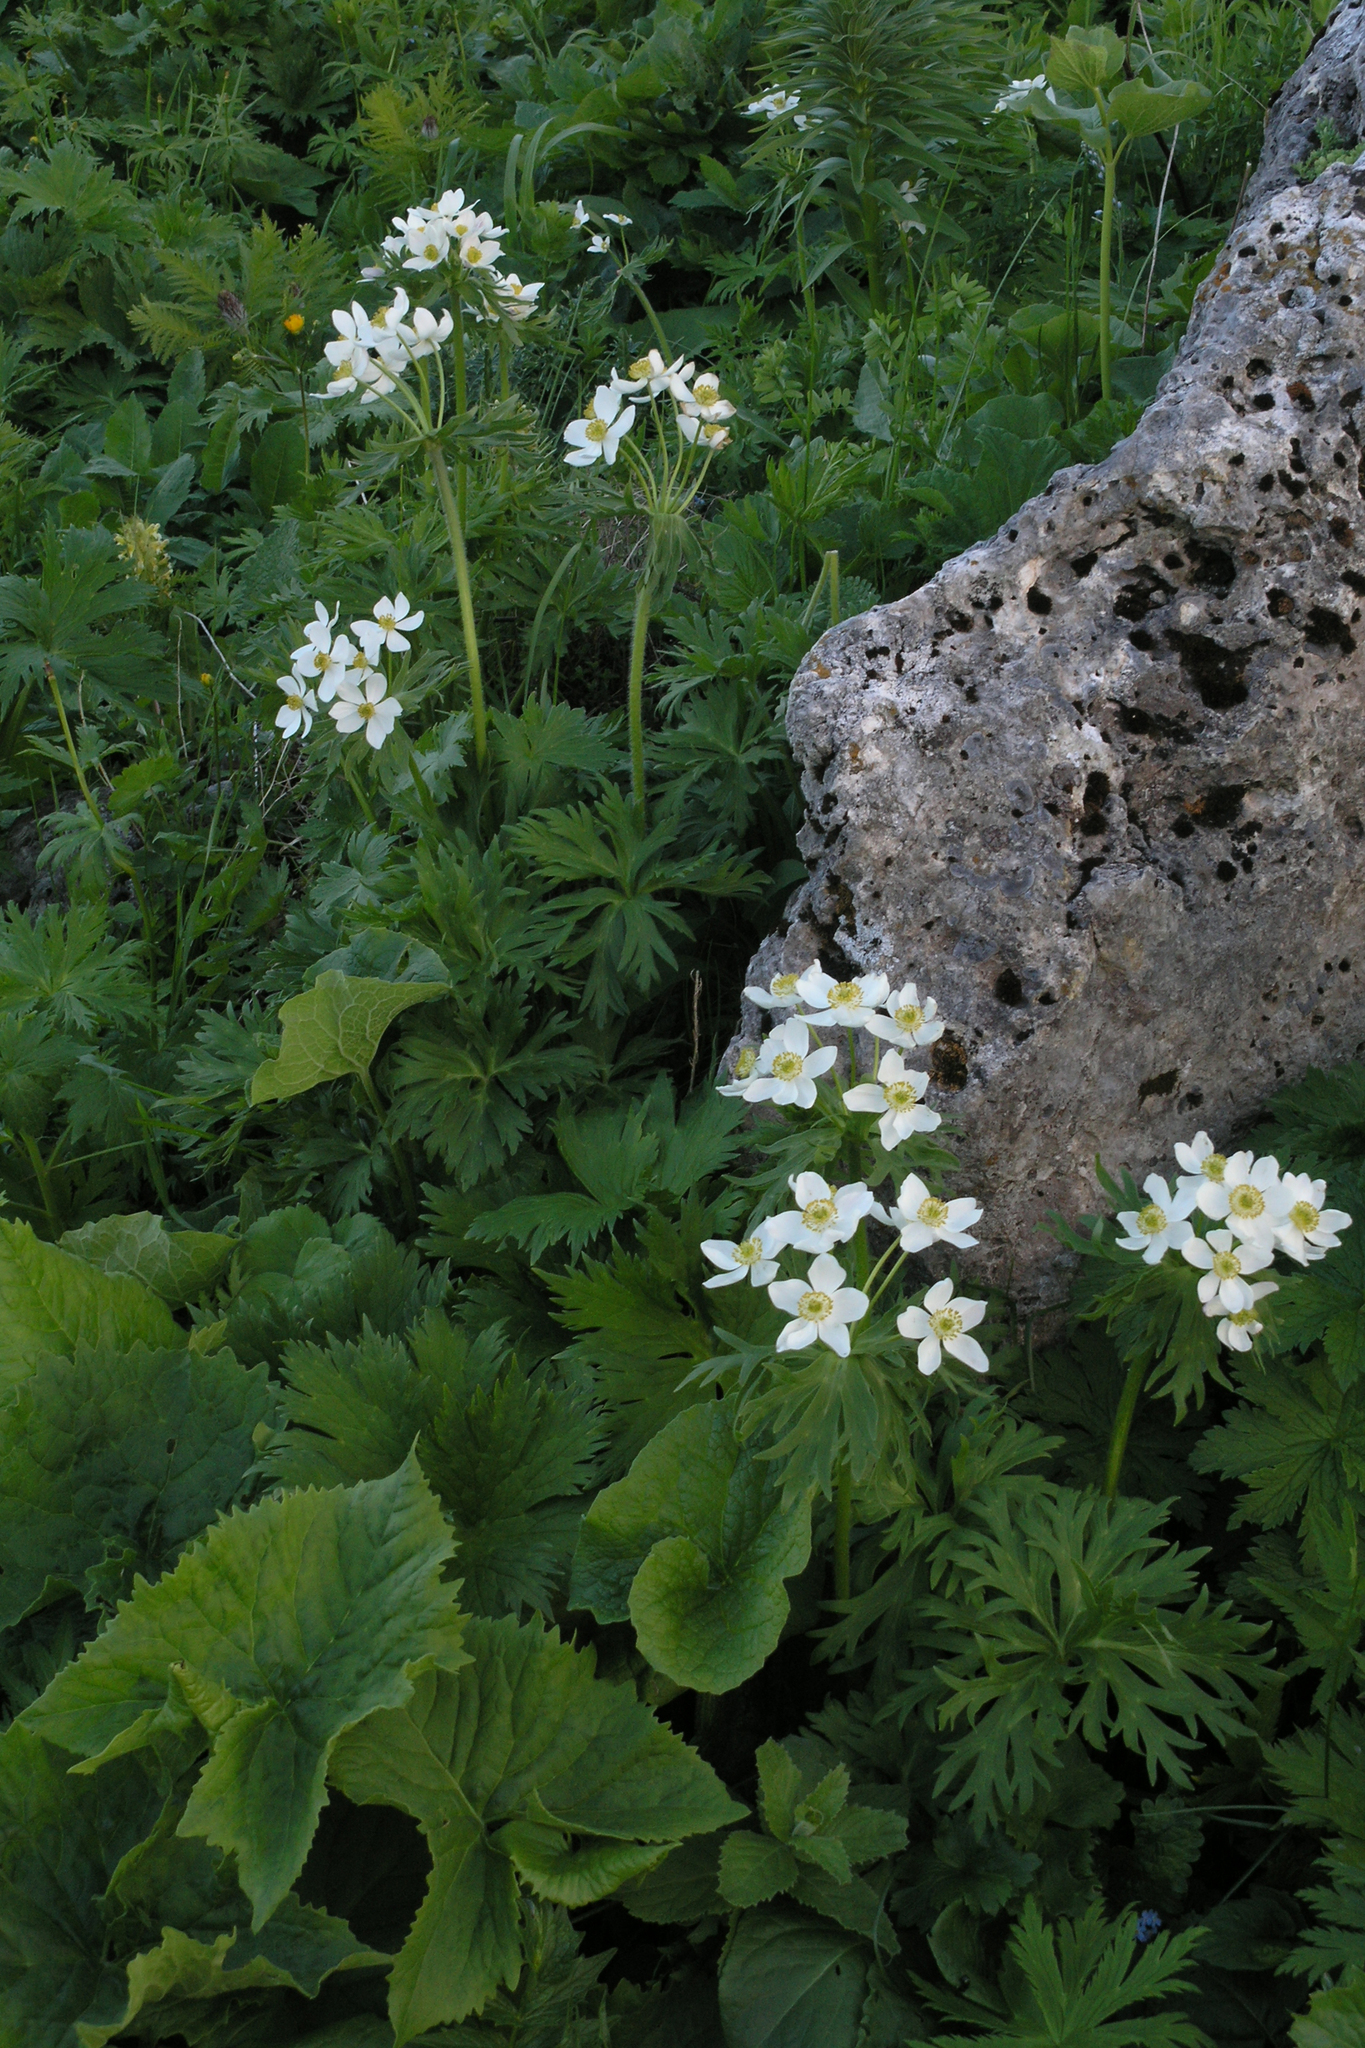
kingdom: Plantae
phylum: Tracheophyta
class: Magnoliopsida
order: Ranunculales
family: Ranunculaceae
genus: Anemonastrum
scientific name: Anemonastrum narcissiflorum
